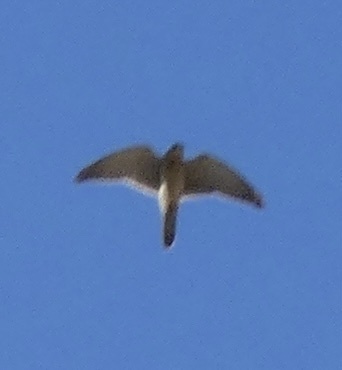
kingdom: Animalia
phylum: Chordata
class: Aves
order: Falconiformes
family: Falconidae
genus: Falco
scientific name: Falco tinnunculus
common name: Common kestrel
